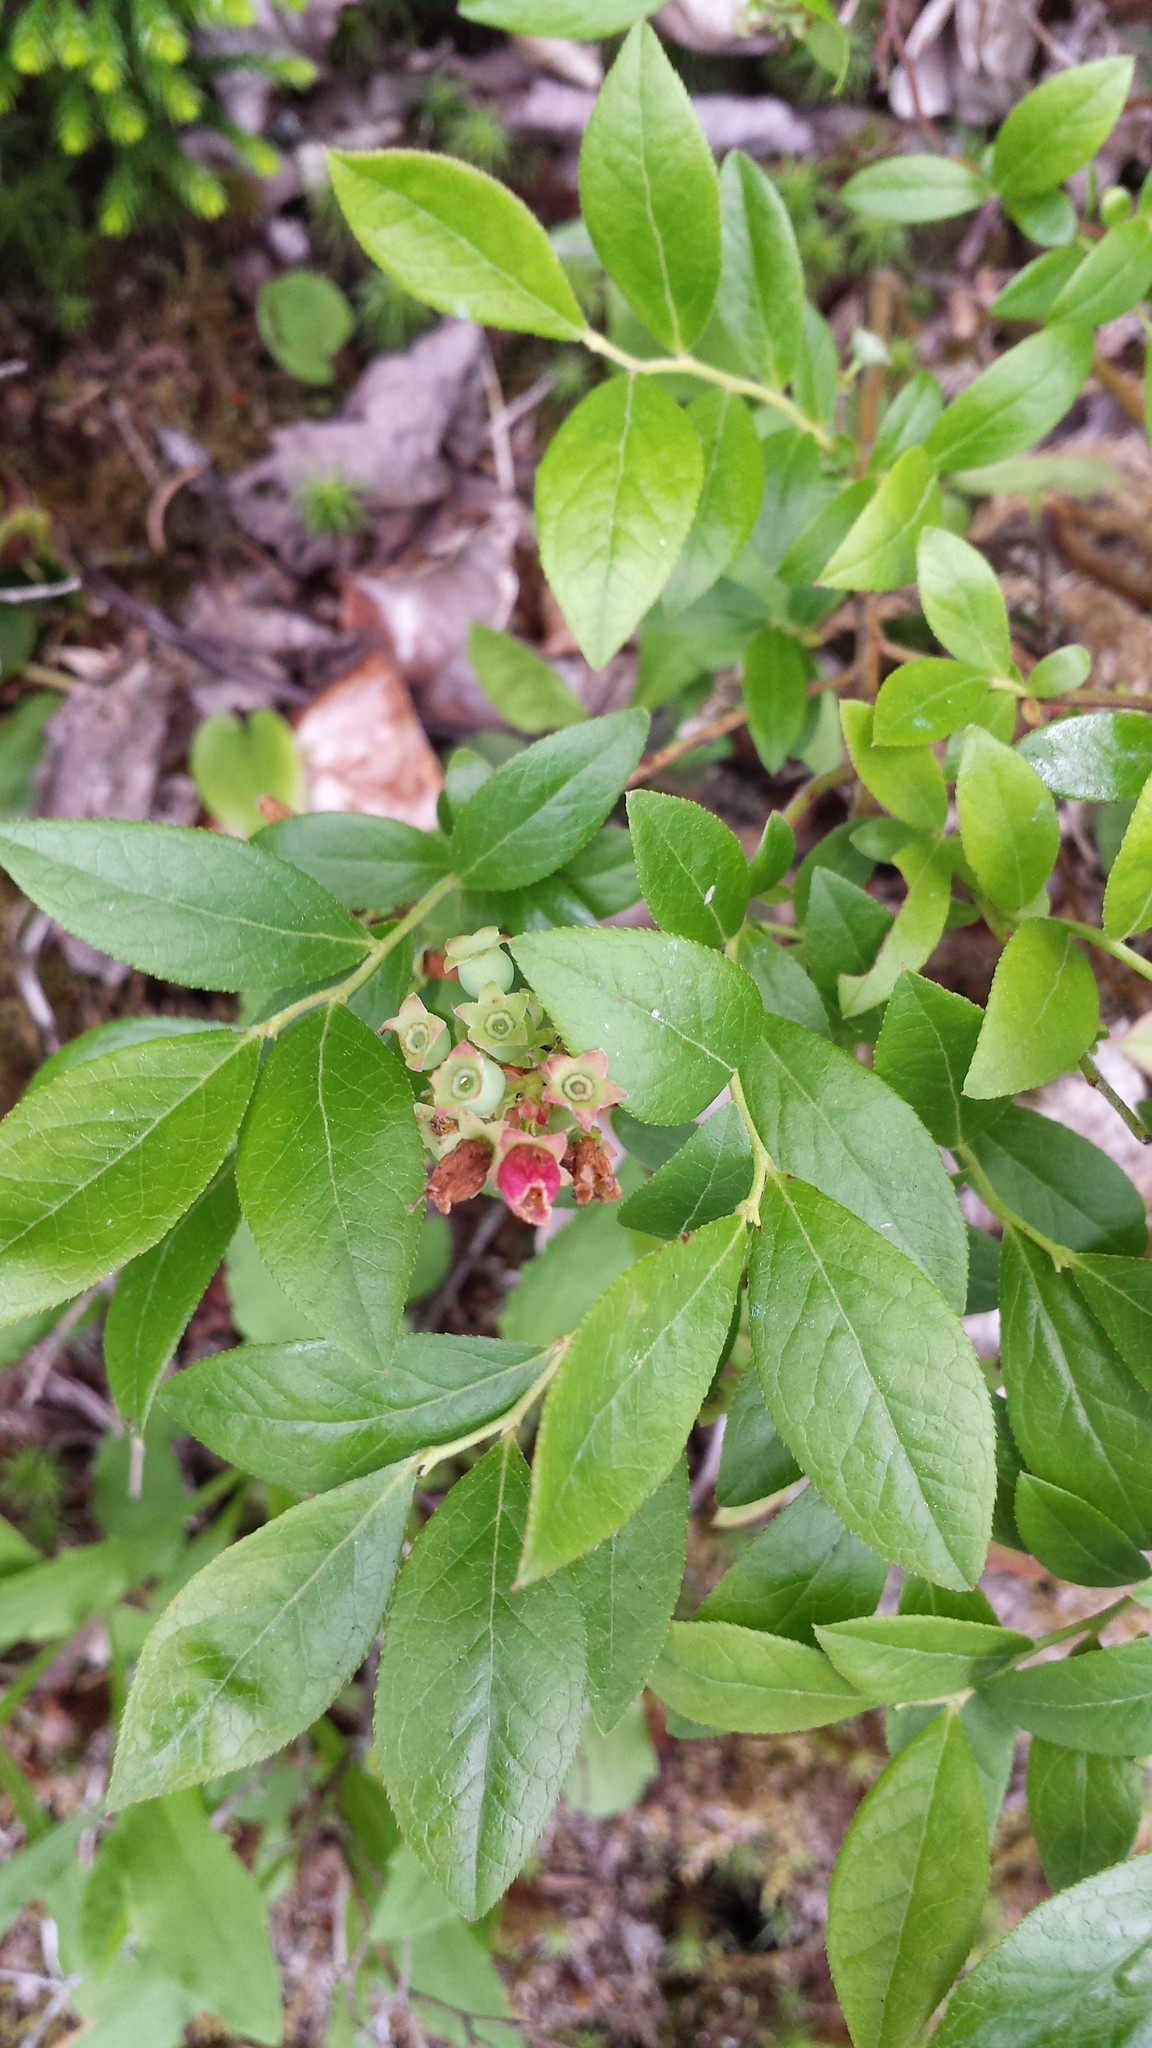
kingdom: Plantae
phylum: Tracheophyta
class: Magnoliopsida
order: Ericales
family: Ericaceae
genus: Vaccinium
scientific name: Vaccinium myrtilloides
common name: Canada blueberry
